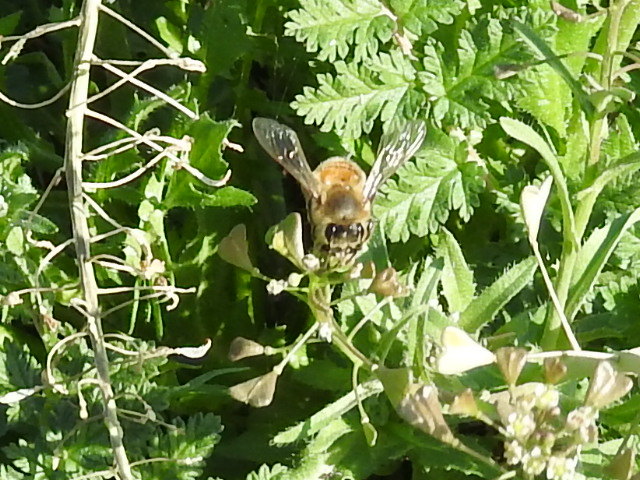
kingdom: Animalia
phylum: Arthropoda
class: Insecta
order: Hymenoptera
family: Apidae
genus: Apis
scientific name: Apis mellifera
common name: Honey bee
